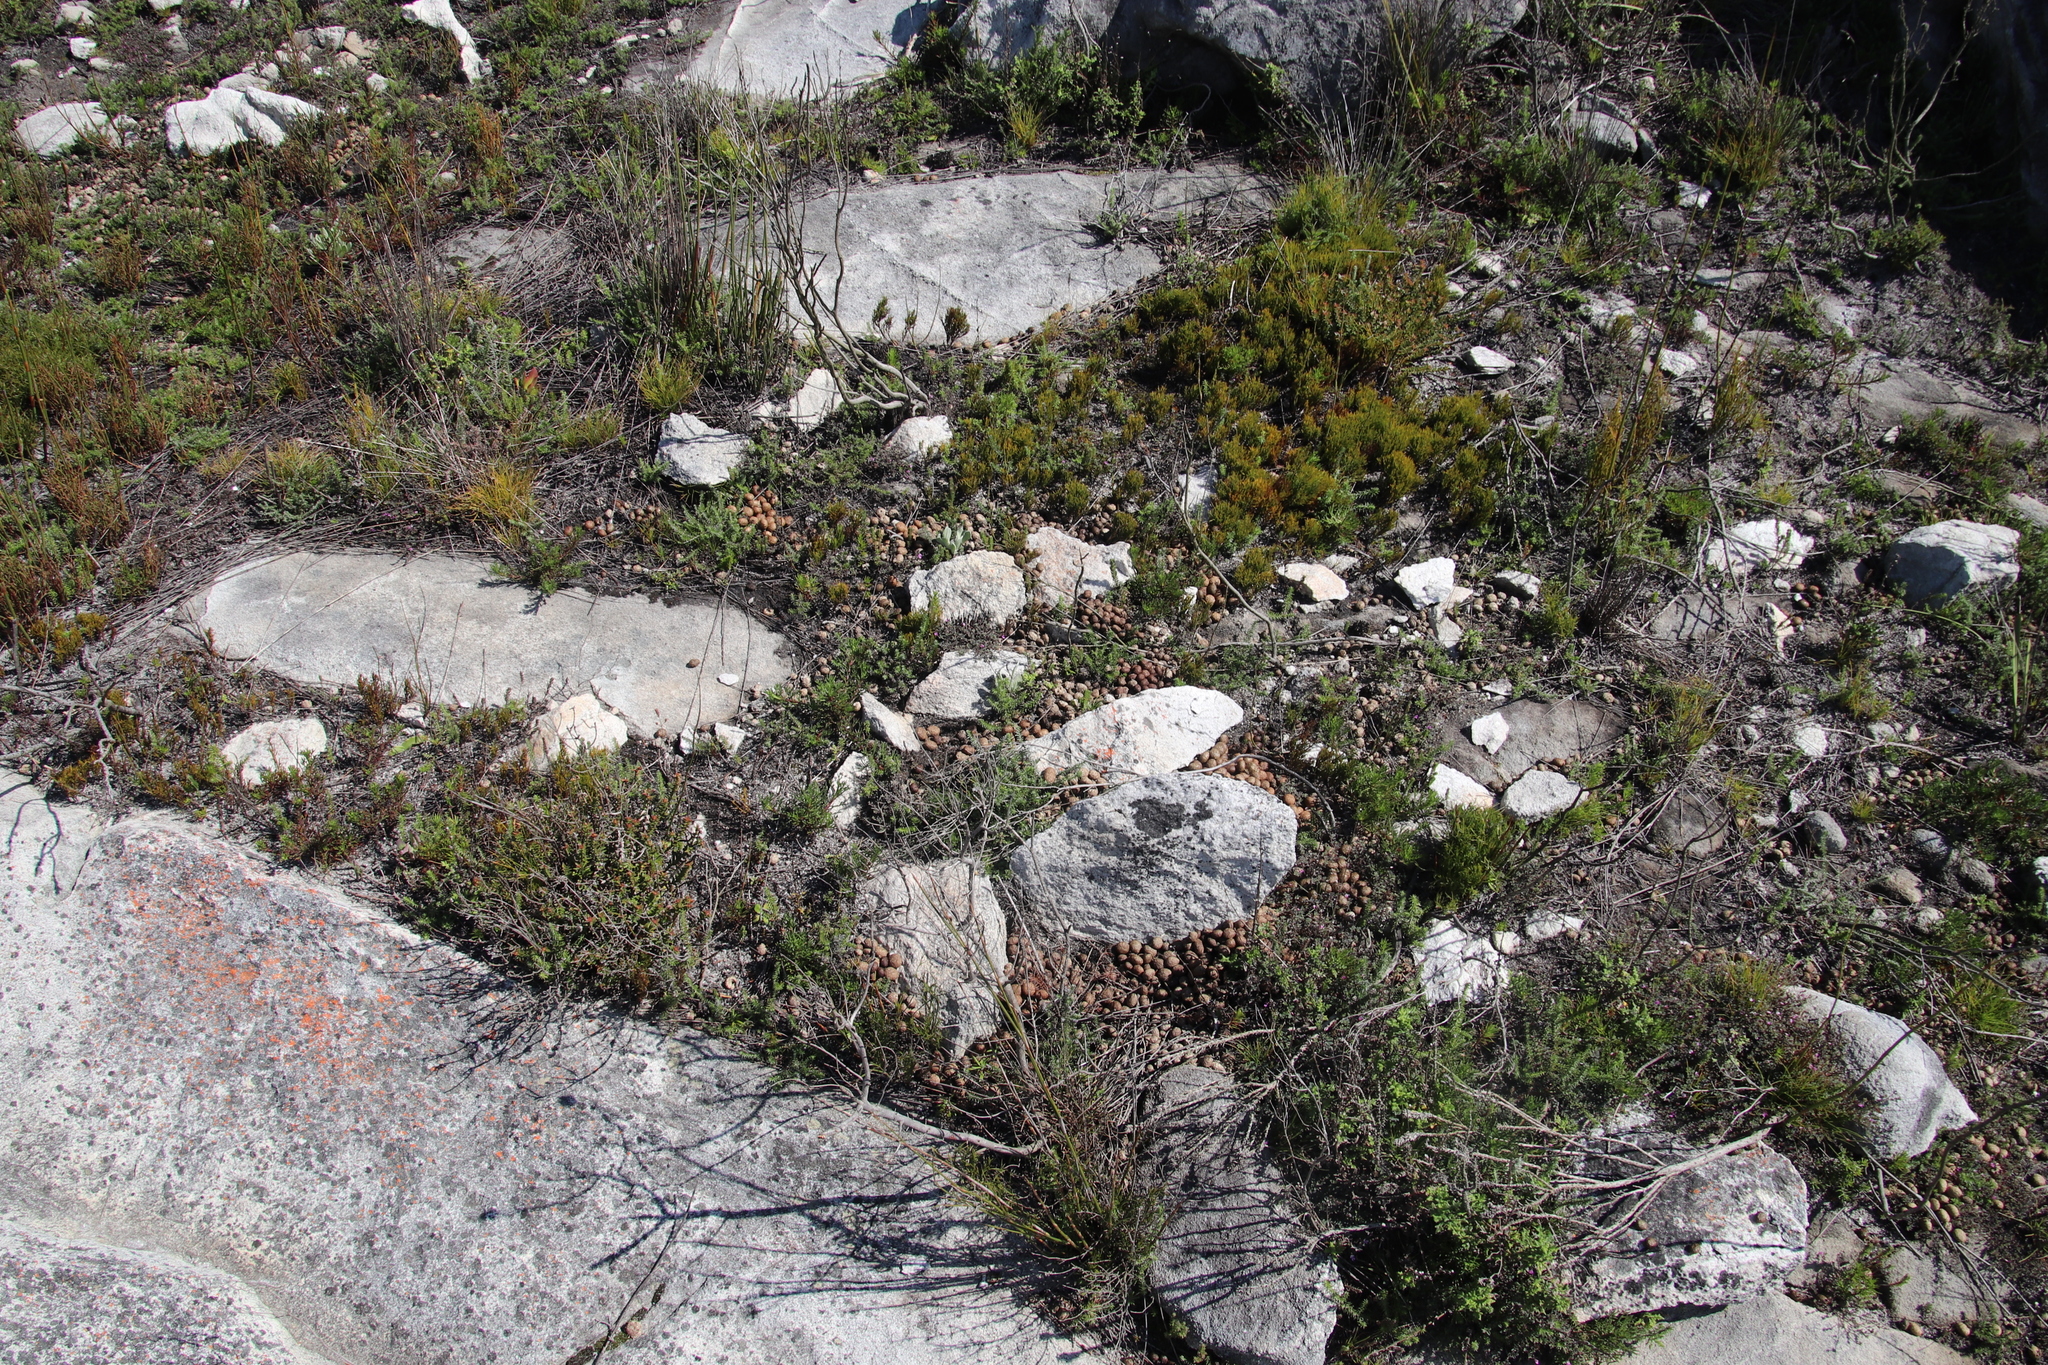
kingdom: Animalia
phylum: Chordata
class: Mammalia
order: Lagomorpha
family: Leporidae
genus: Pronolagus
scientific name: Pronolagus saundersiae
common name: Hewitt's red rock hare
